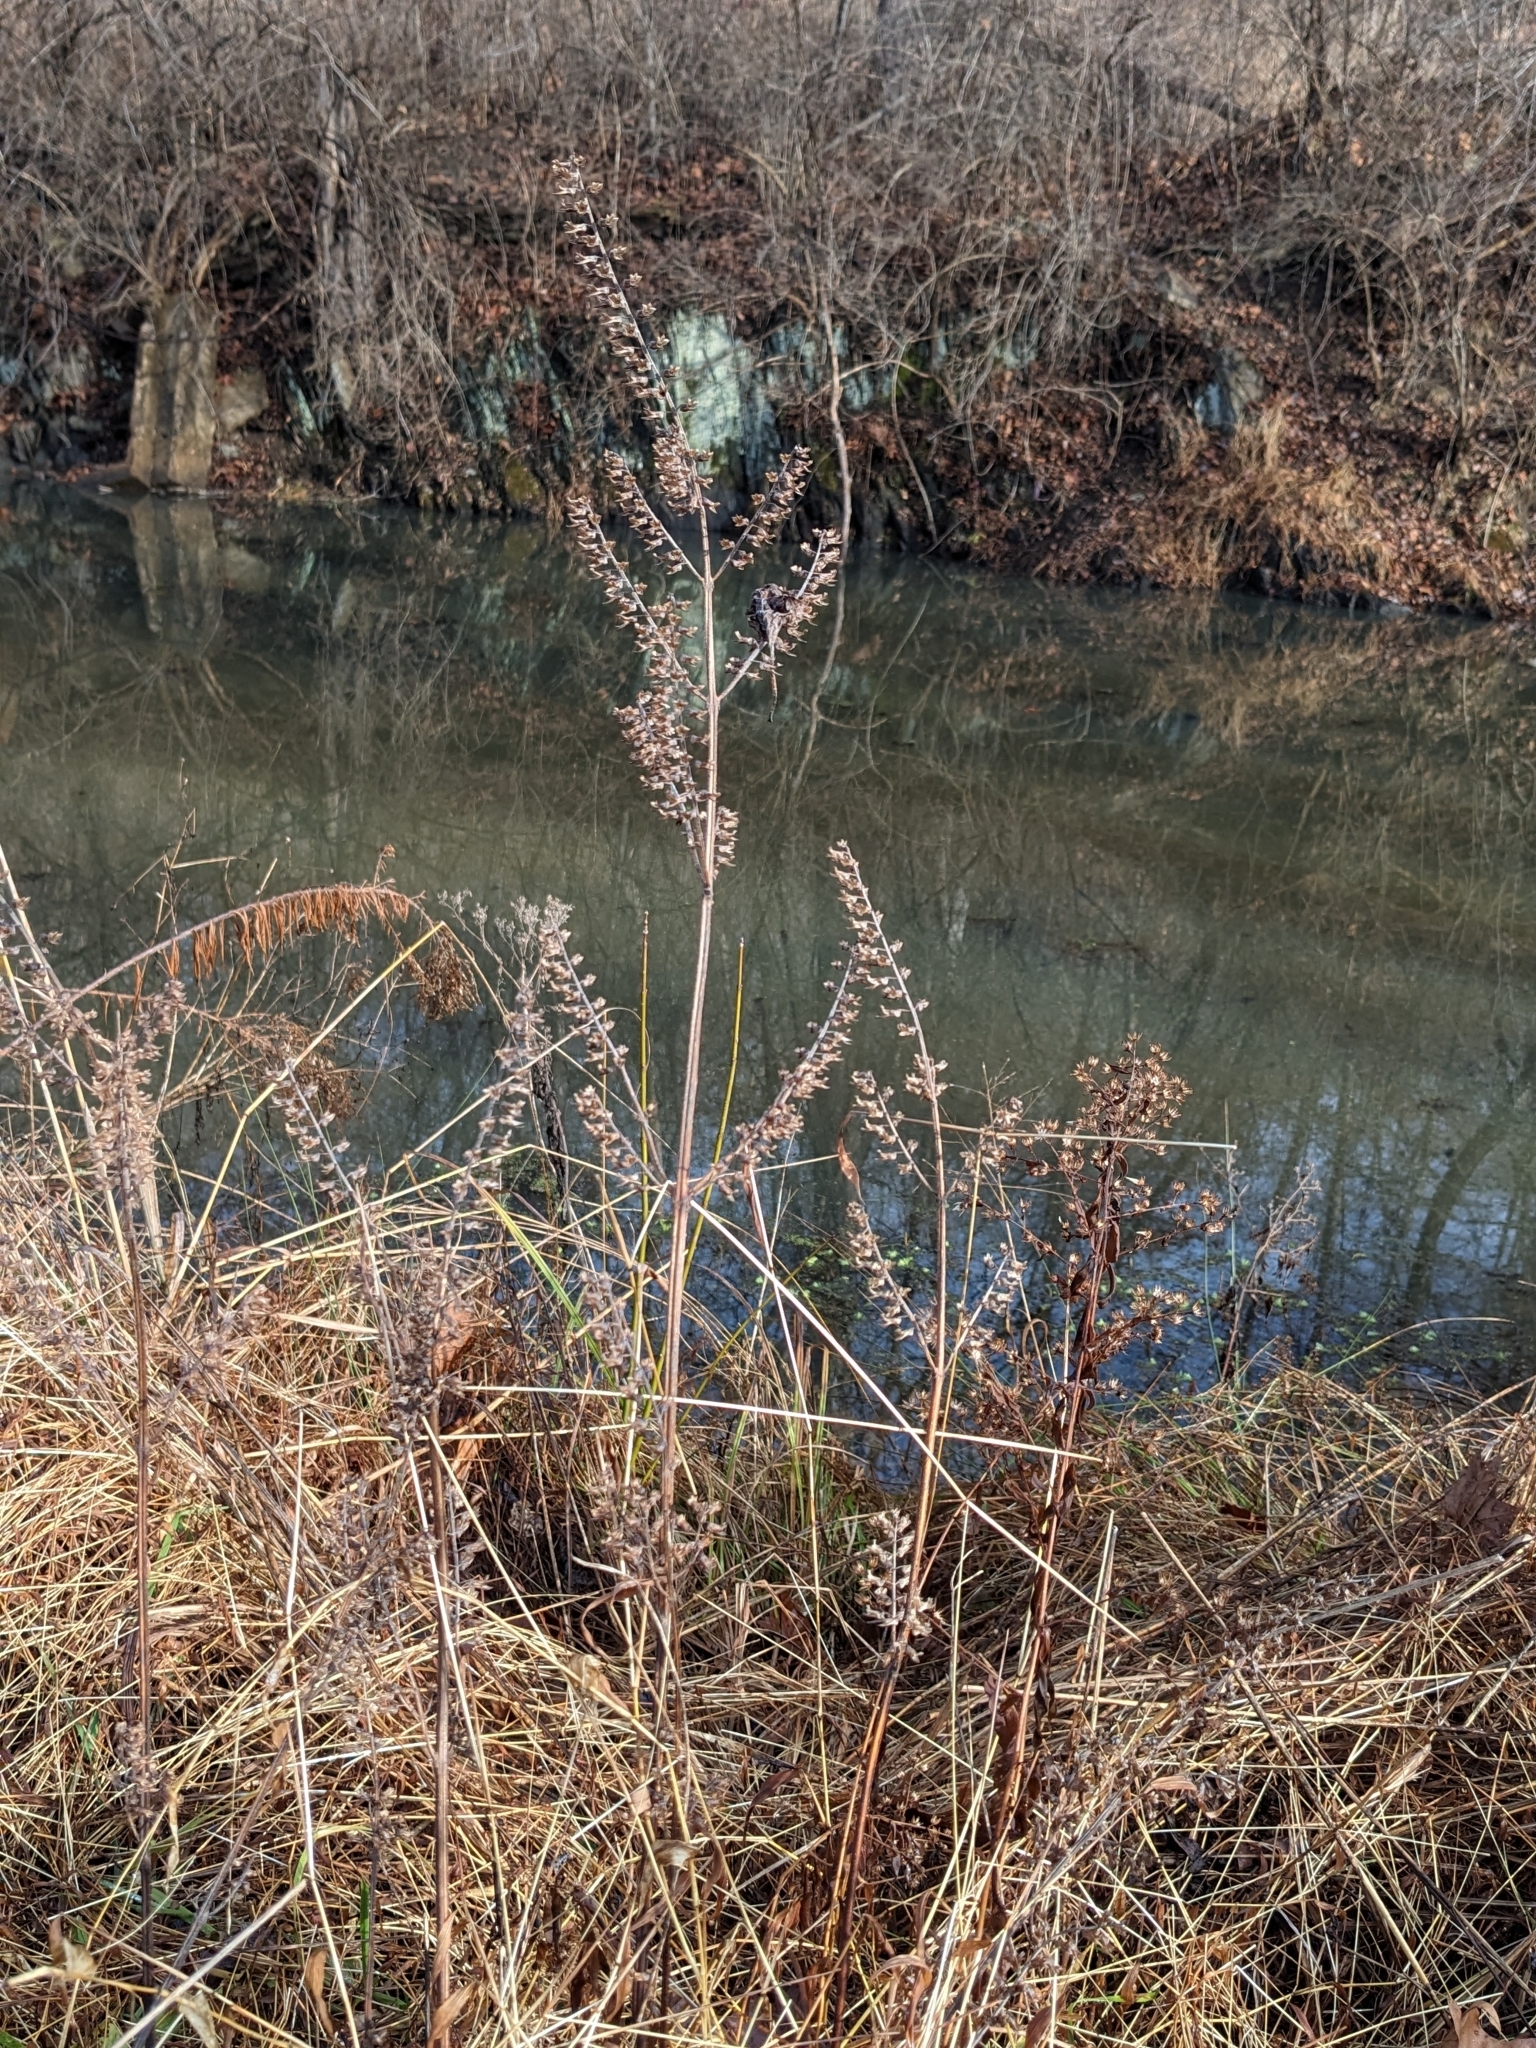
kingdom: Plantae
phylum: Tracheophyta
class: Magnoliopsida
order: Lamiales
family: Lamiaceae
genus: Perilla
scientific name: Perilla frutescens
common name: Perilla
